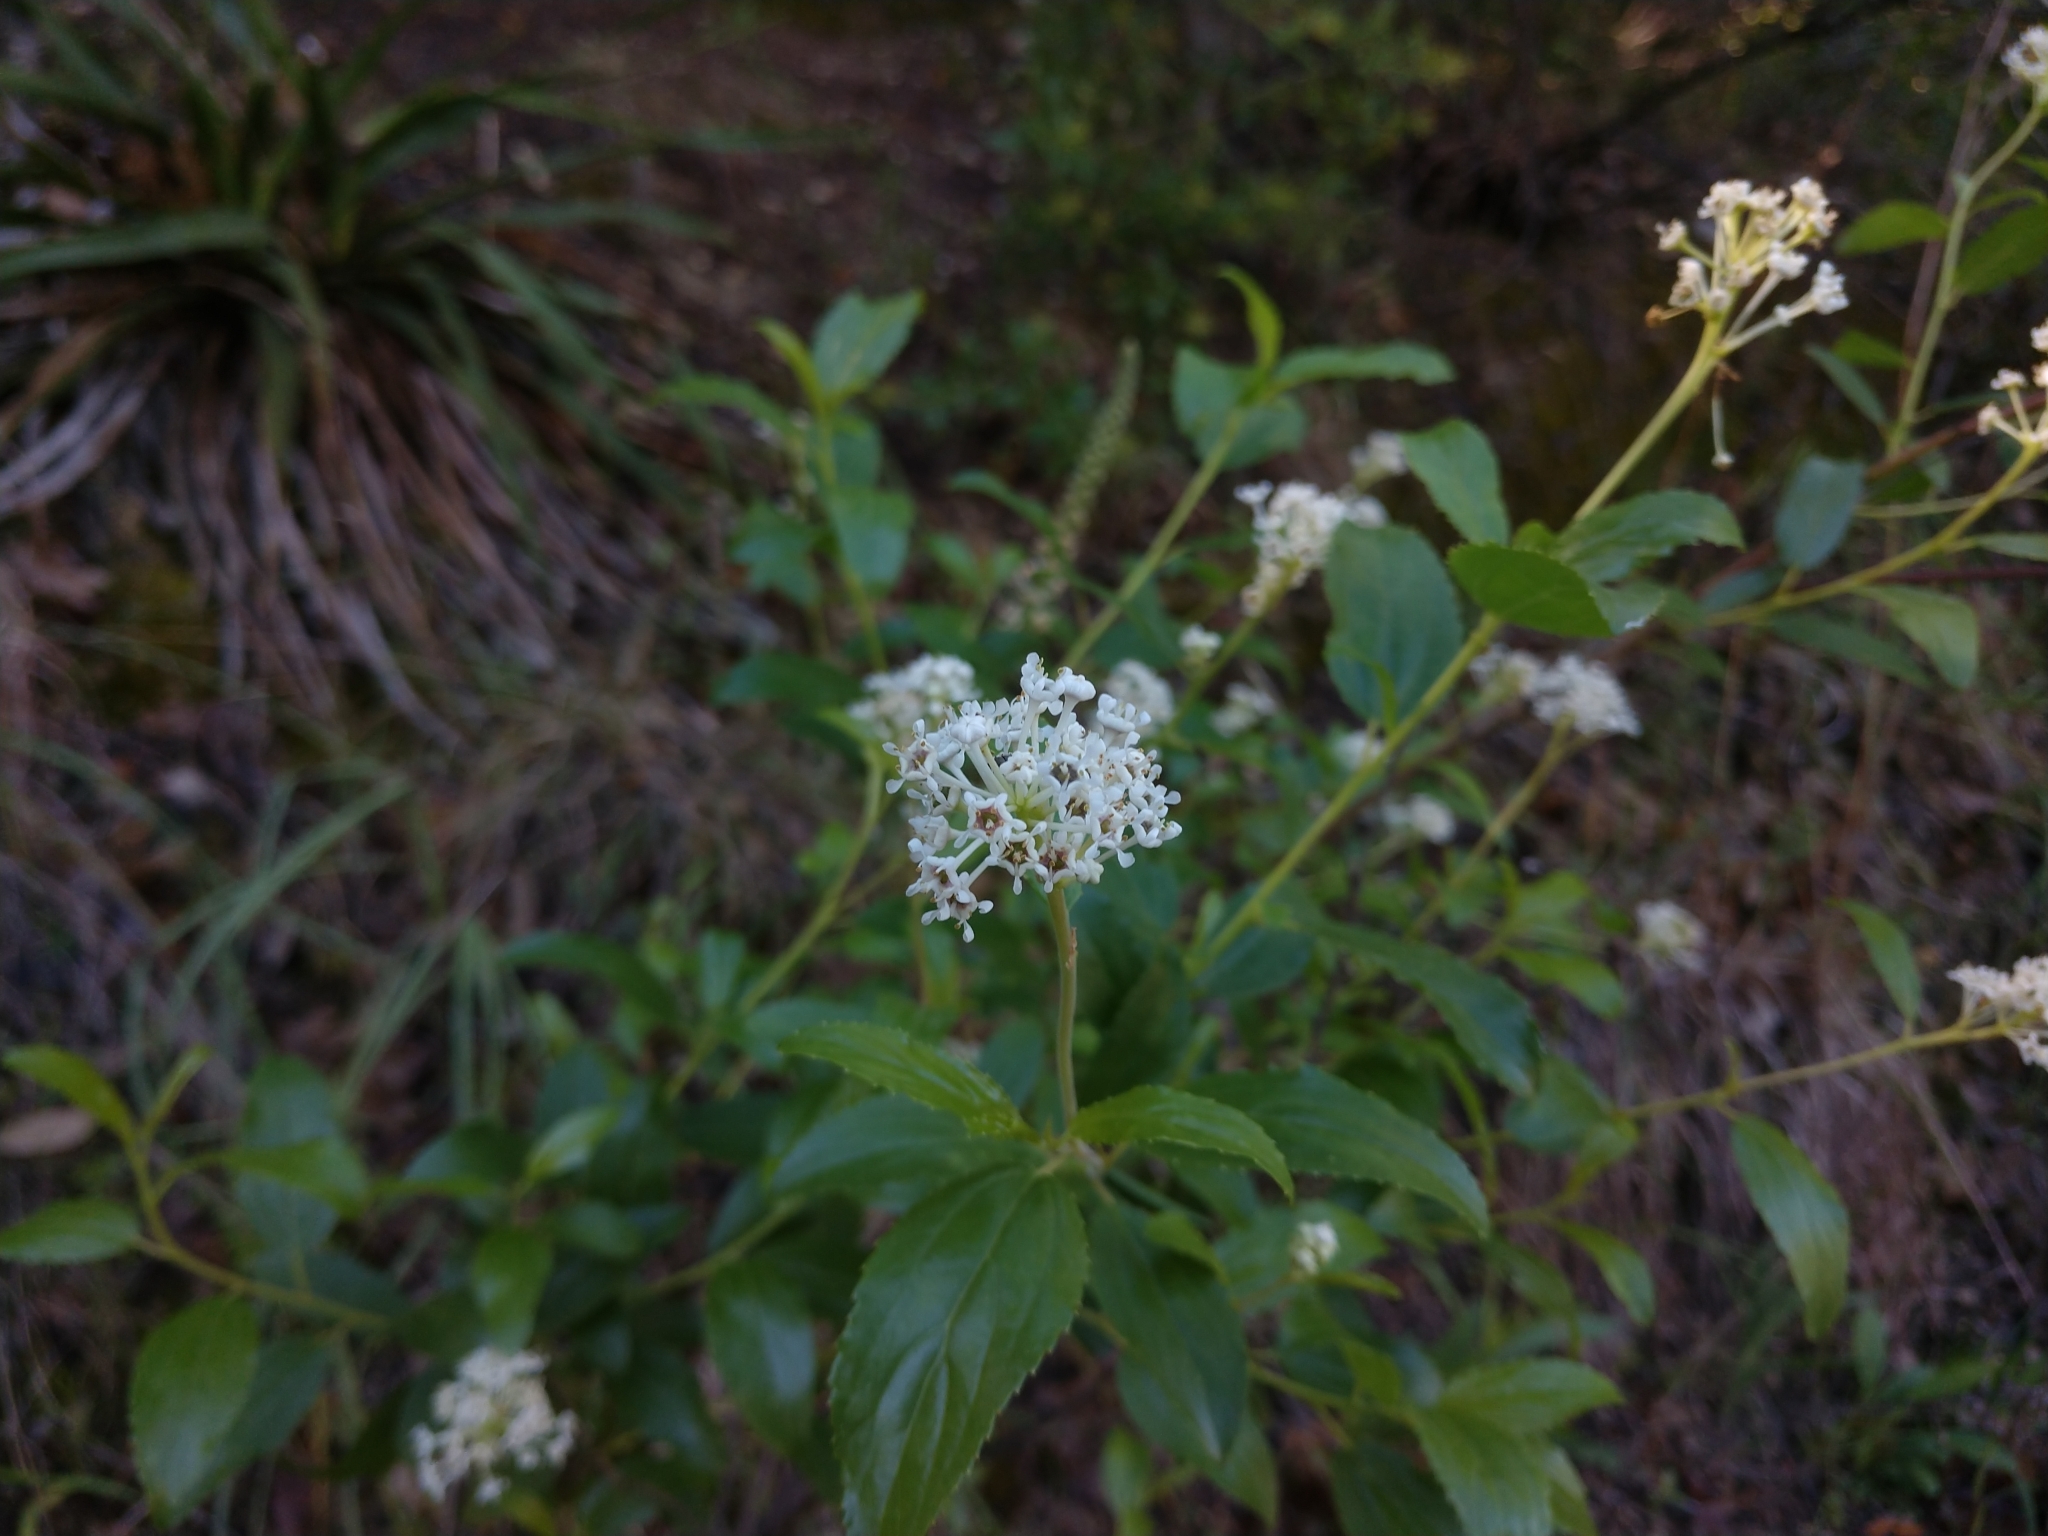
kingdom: Plantae
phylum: Tracheophyta
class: Magnoliopsida
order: Rosales
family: Rhamnaceae
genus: Ceanothus
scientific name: Ceanothus herbaceus
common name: Inland ceanothus
